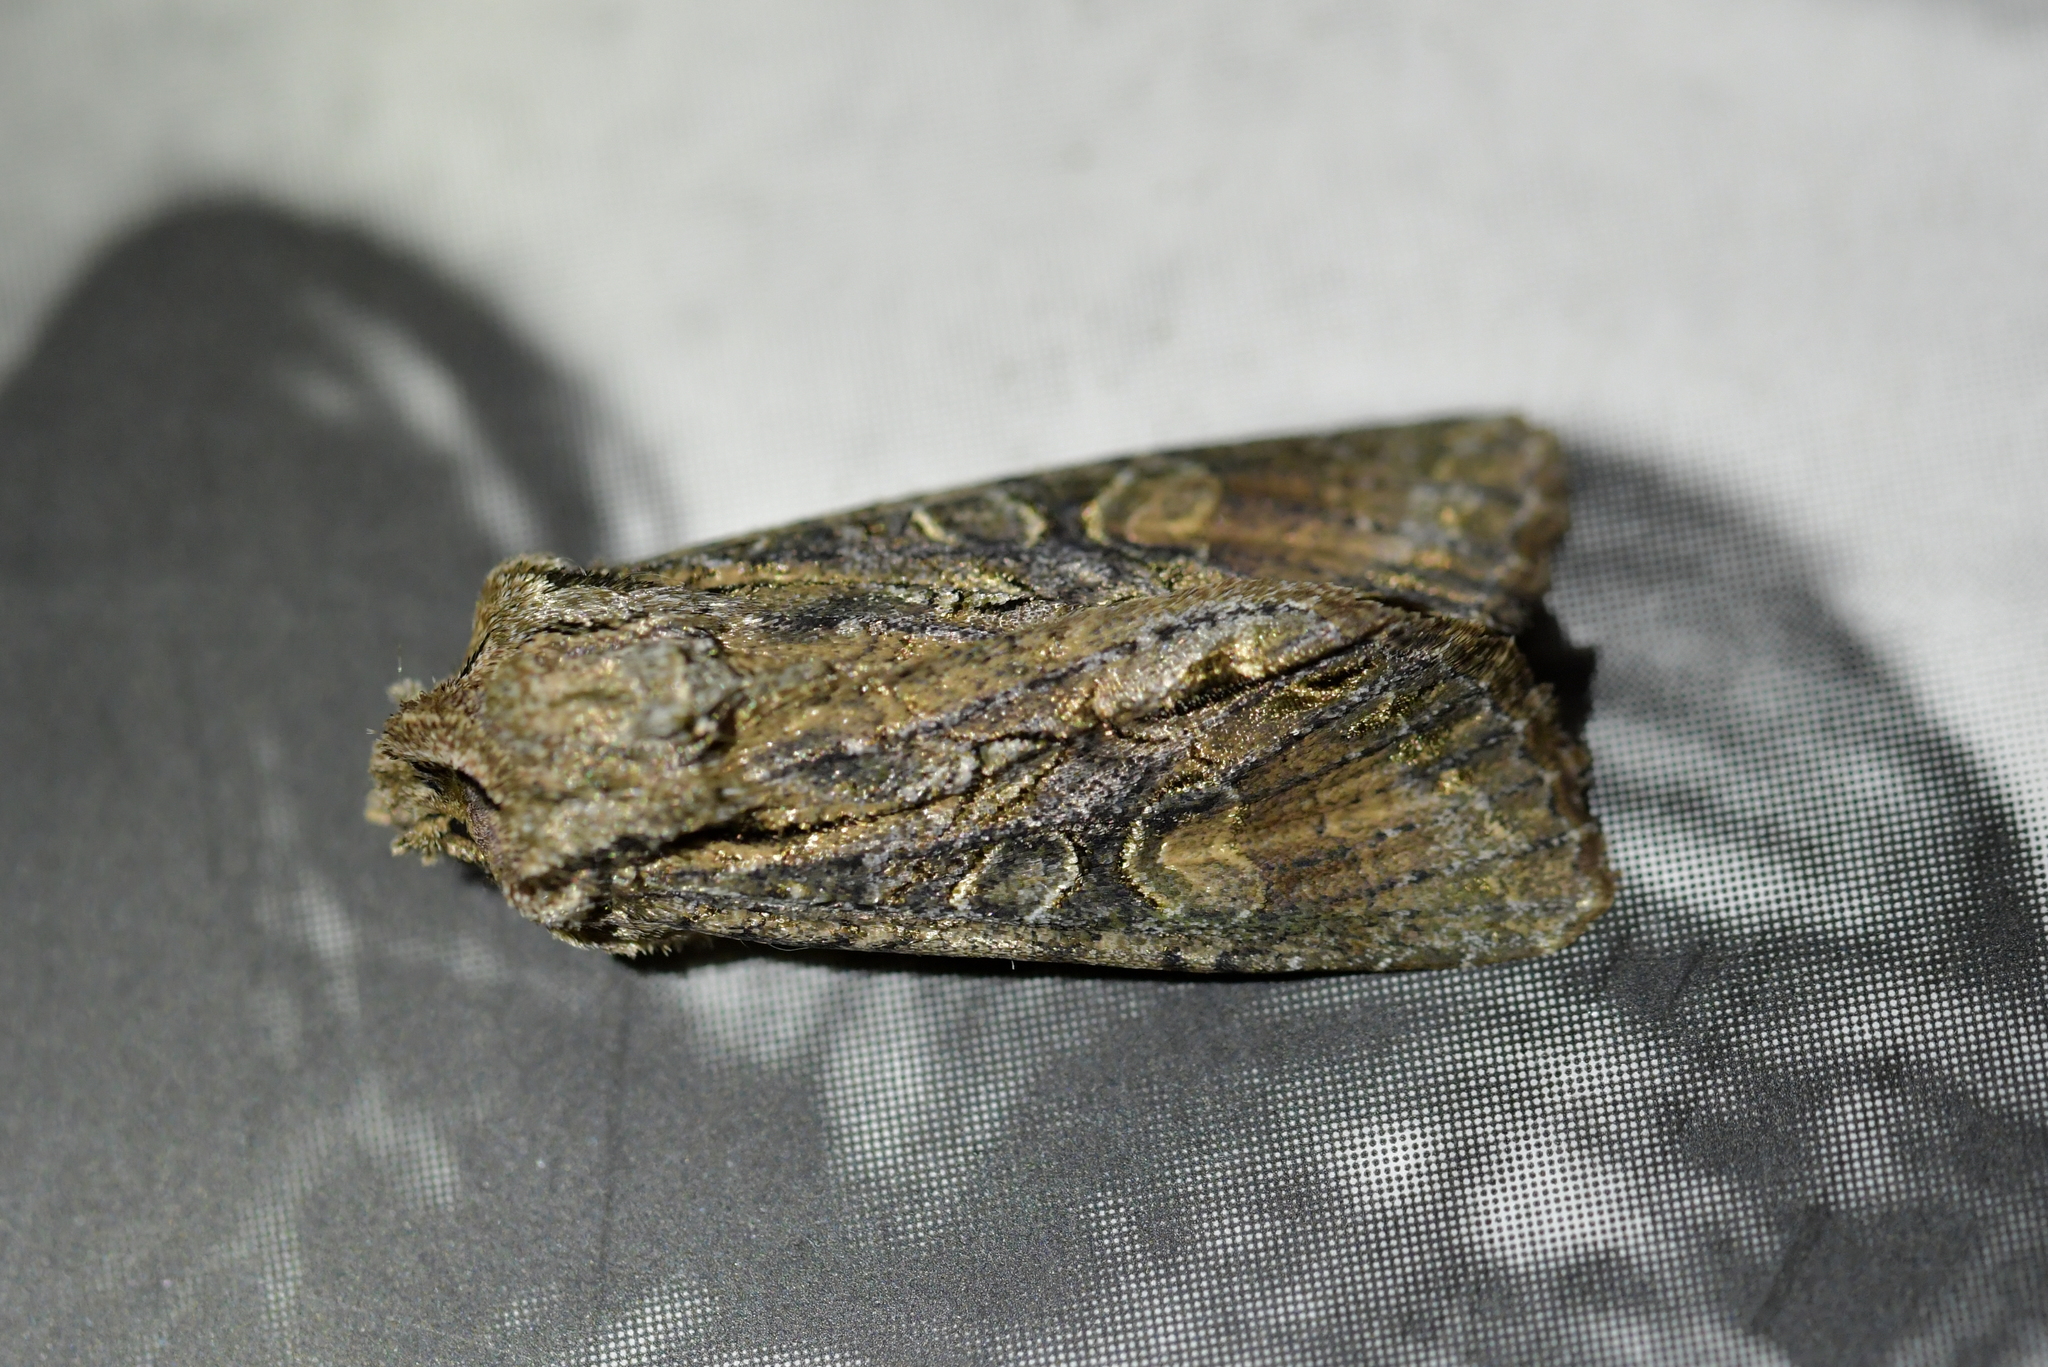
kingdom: Animalia
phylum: Arthropoda
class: Insecta
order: Lepidoptera
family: Noctuidae
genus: Ichneutica
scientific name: Ichneutica mutans
